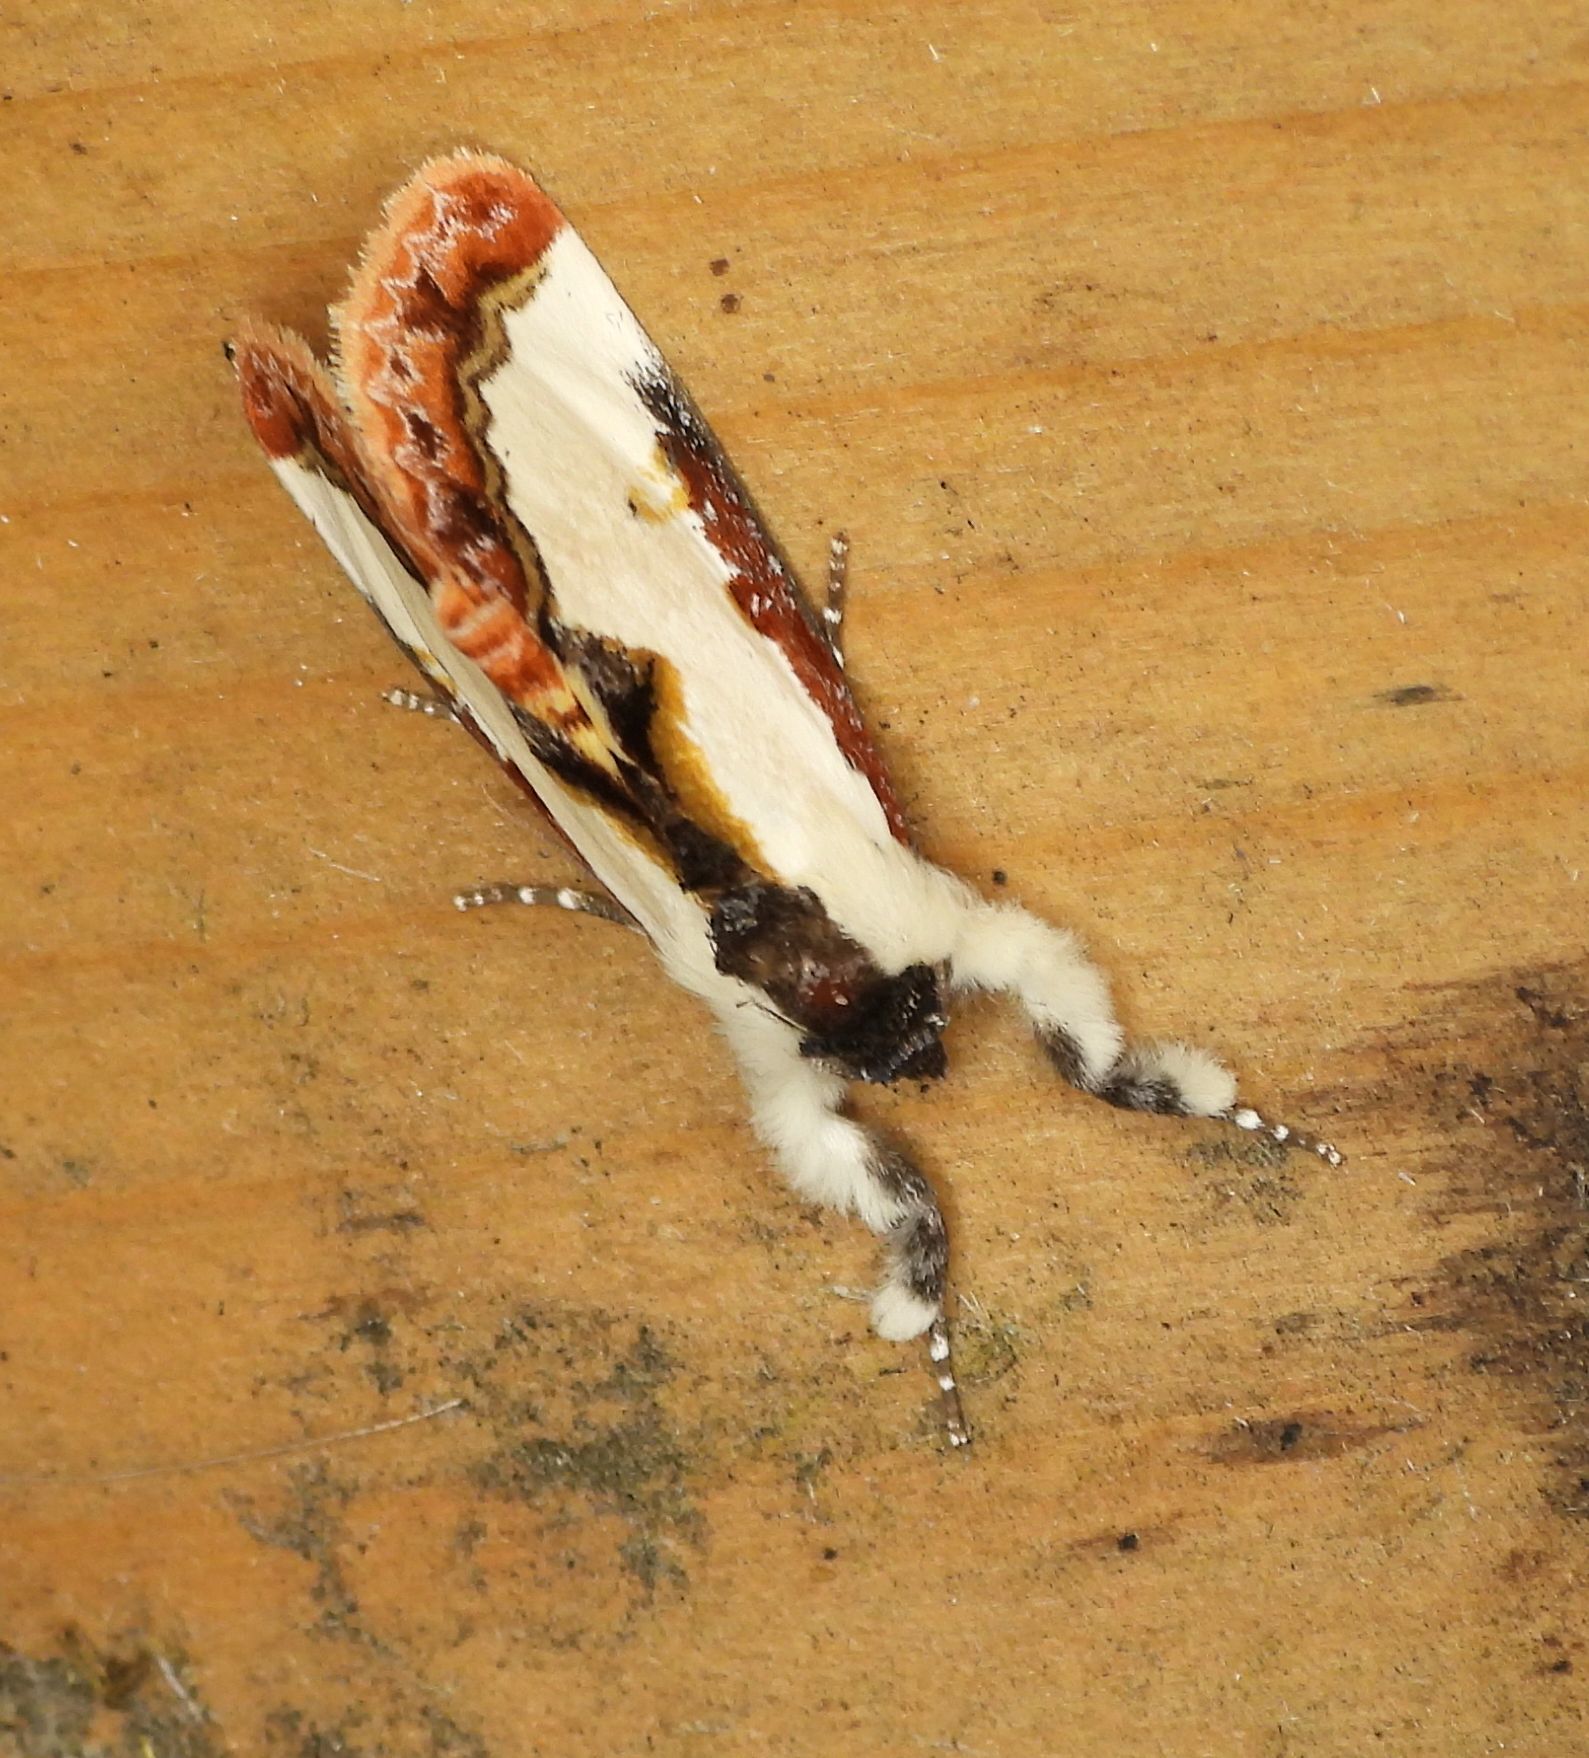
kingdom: Animalia
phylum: Arthropoda
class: Insecta
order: Lepidoptera
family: Noctuidae
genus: Eudryas
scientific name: Eudryas unio
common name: Pearly wood-nymph
